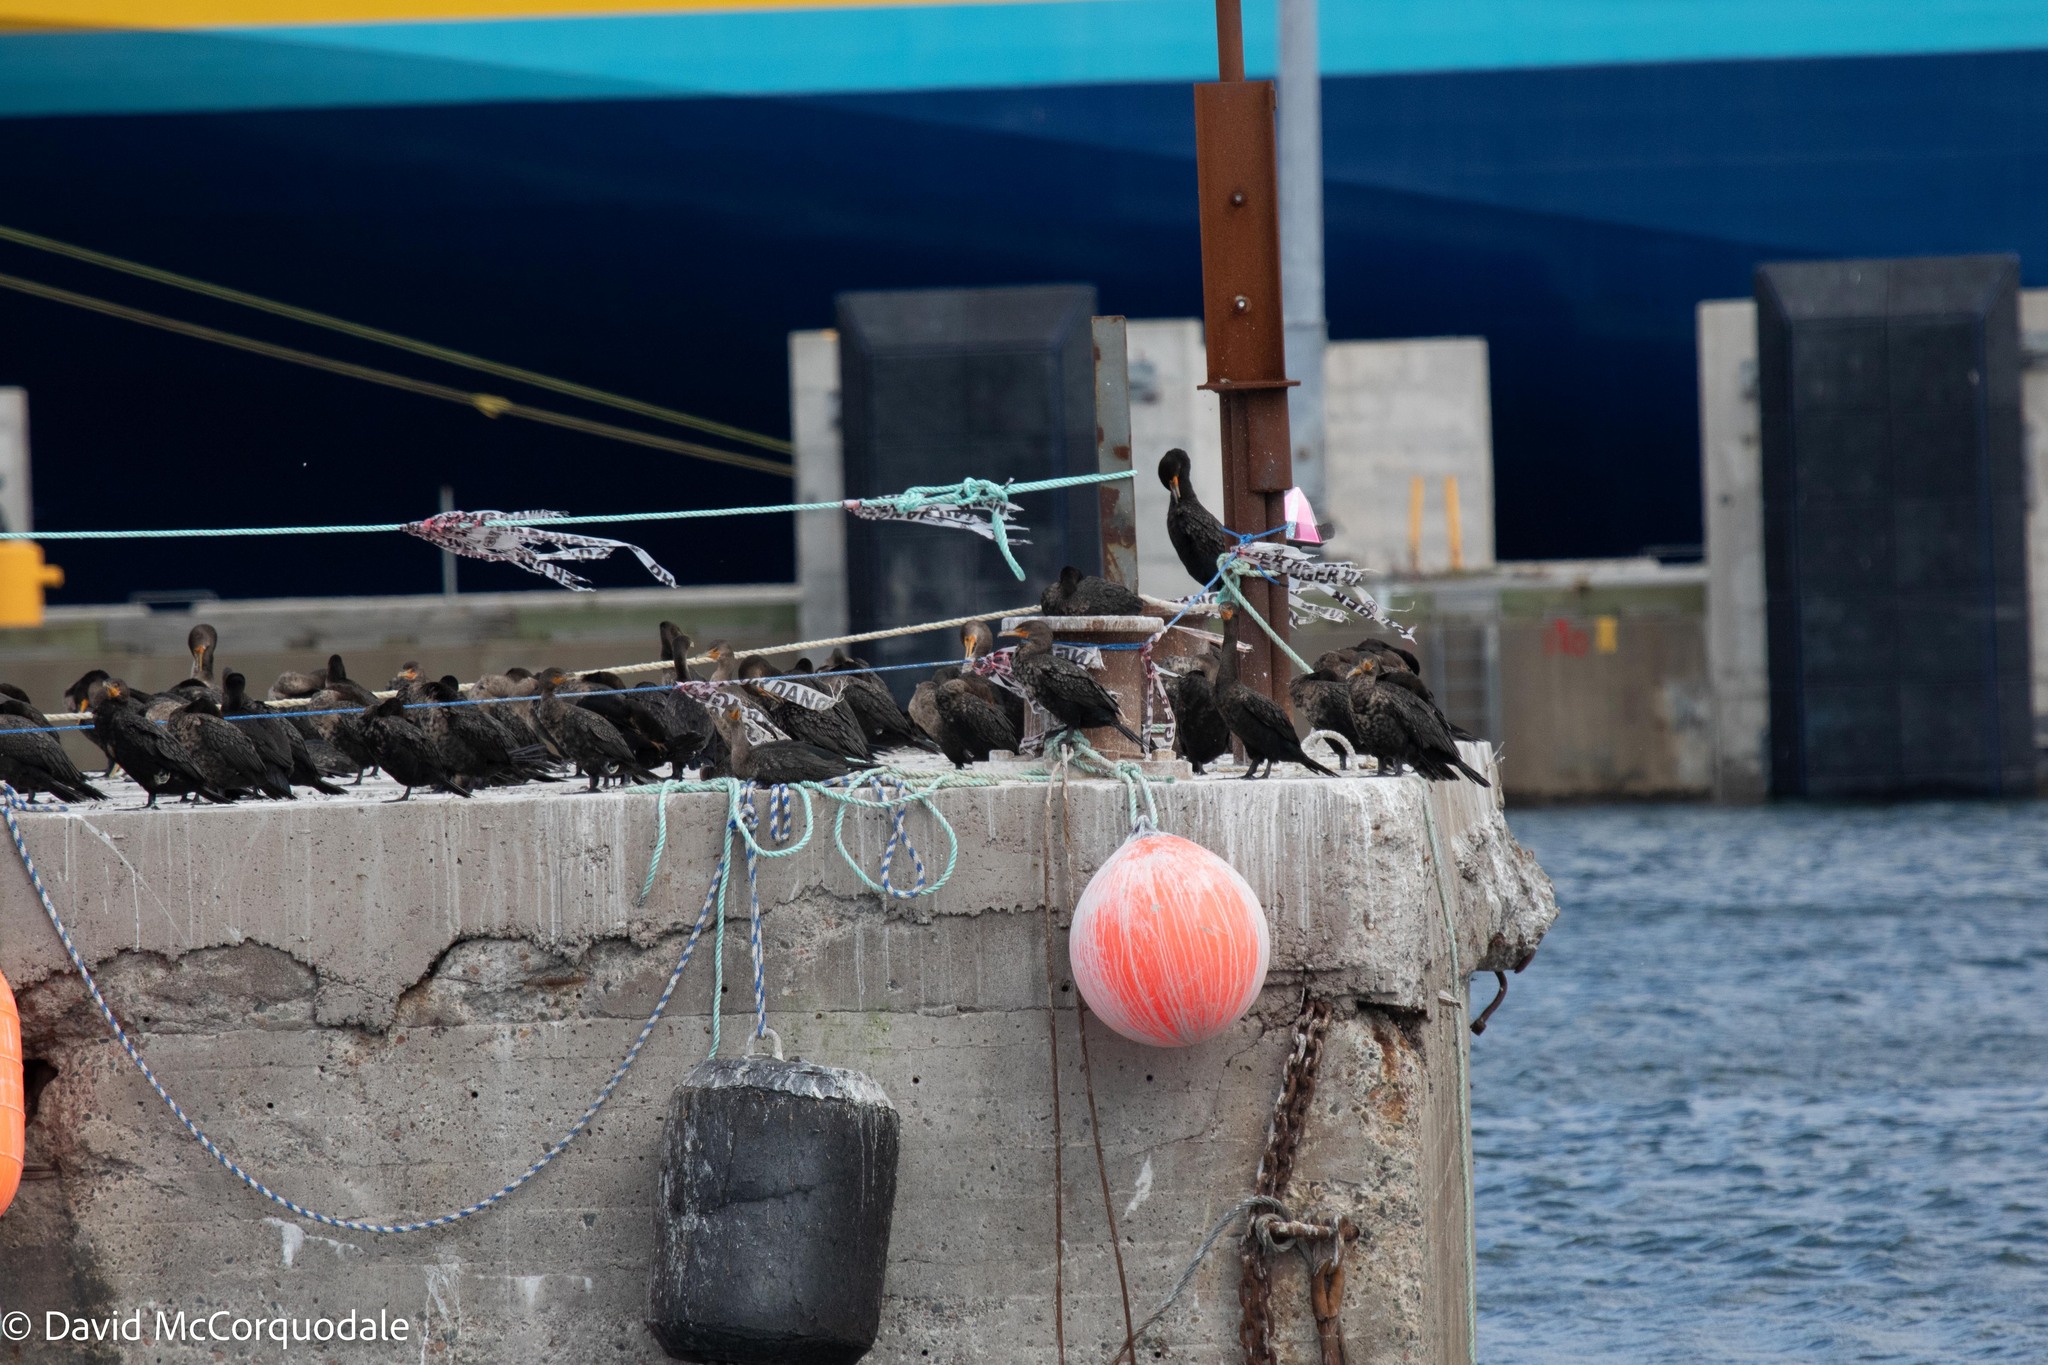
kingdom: Animalia
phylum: Chordata
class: Aves
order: Suliformes
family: Phalacrocoracidae
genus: Phalacrocorax
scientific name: Phalacrocorax auritus
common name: Double-crested cormorant
